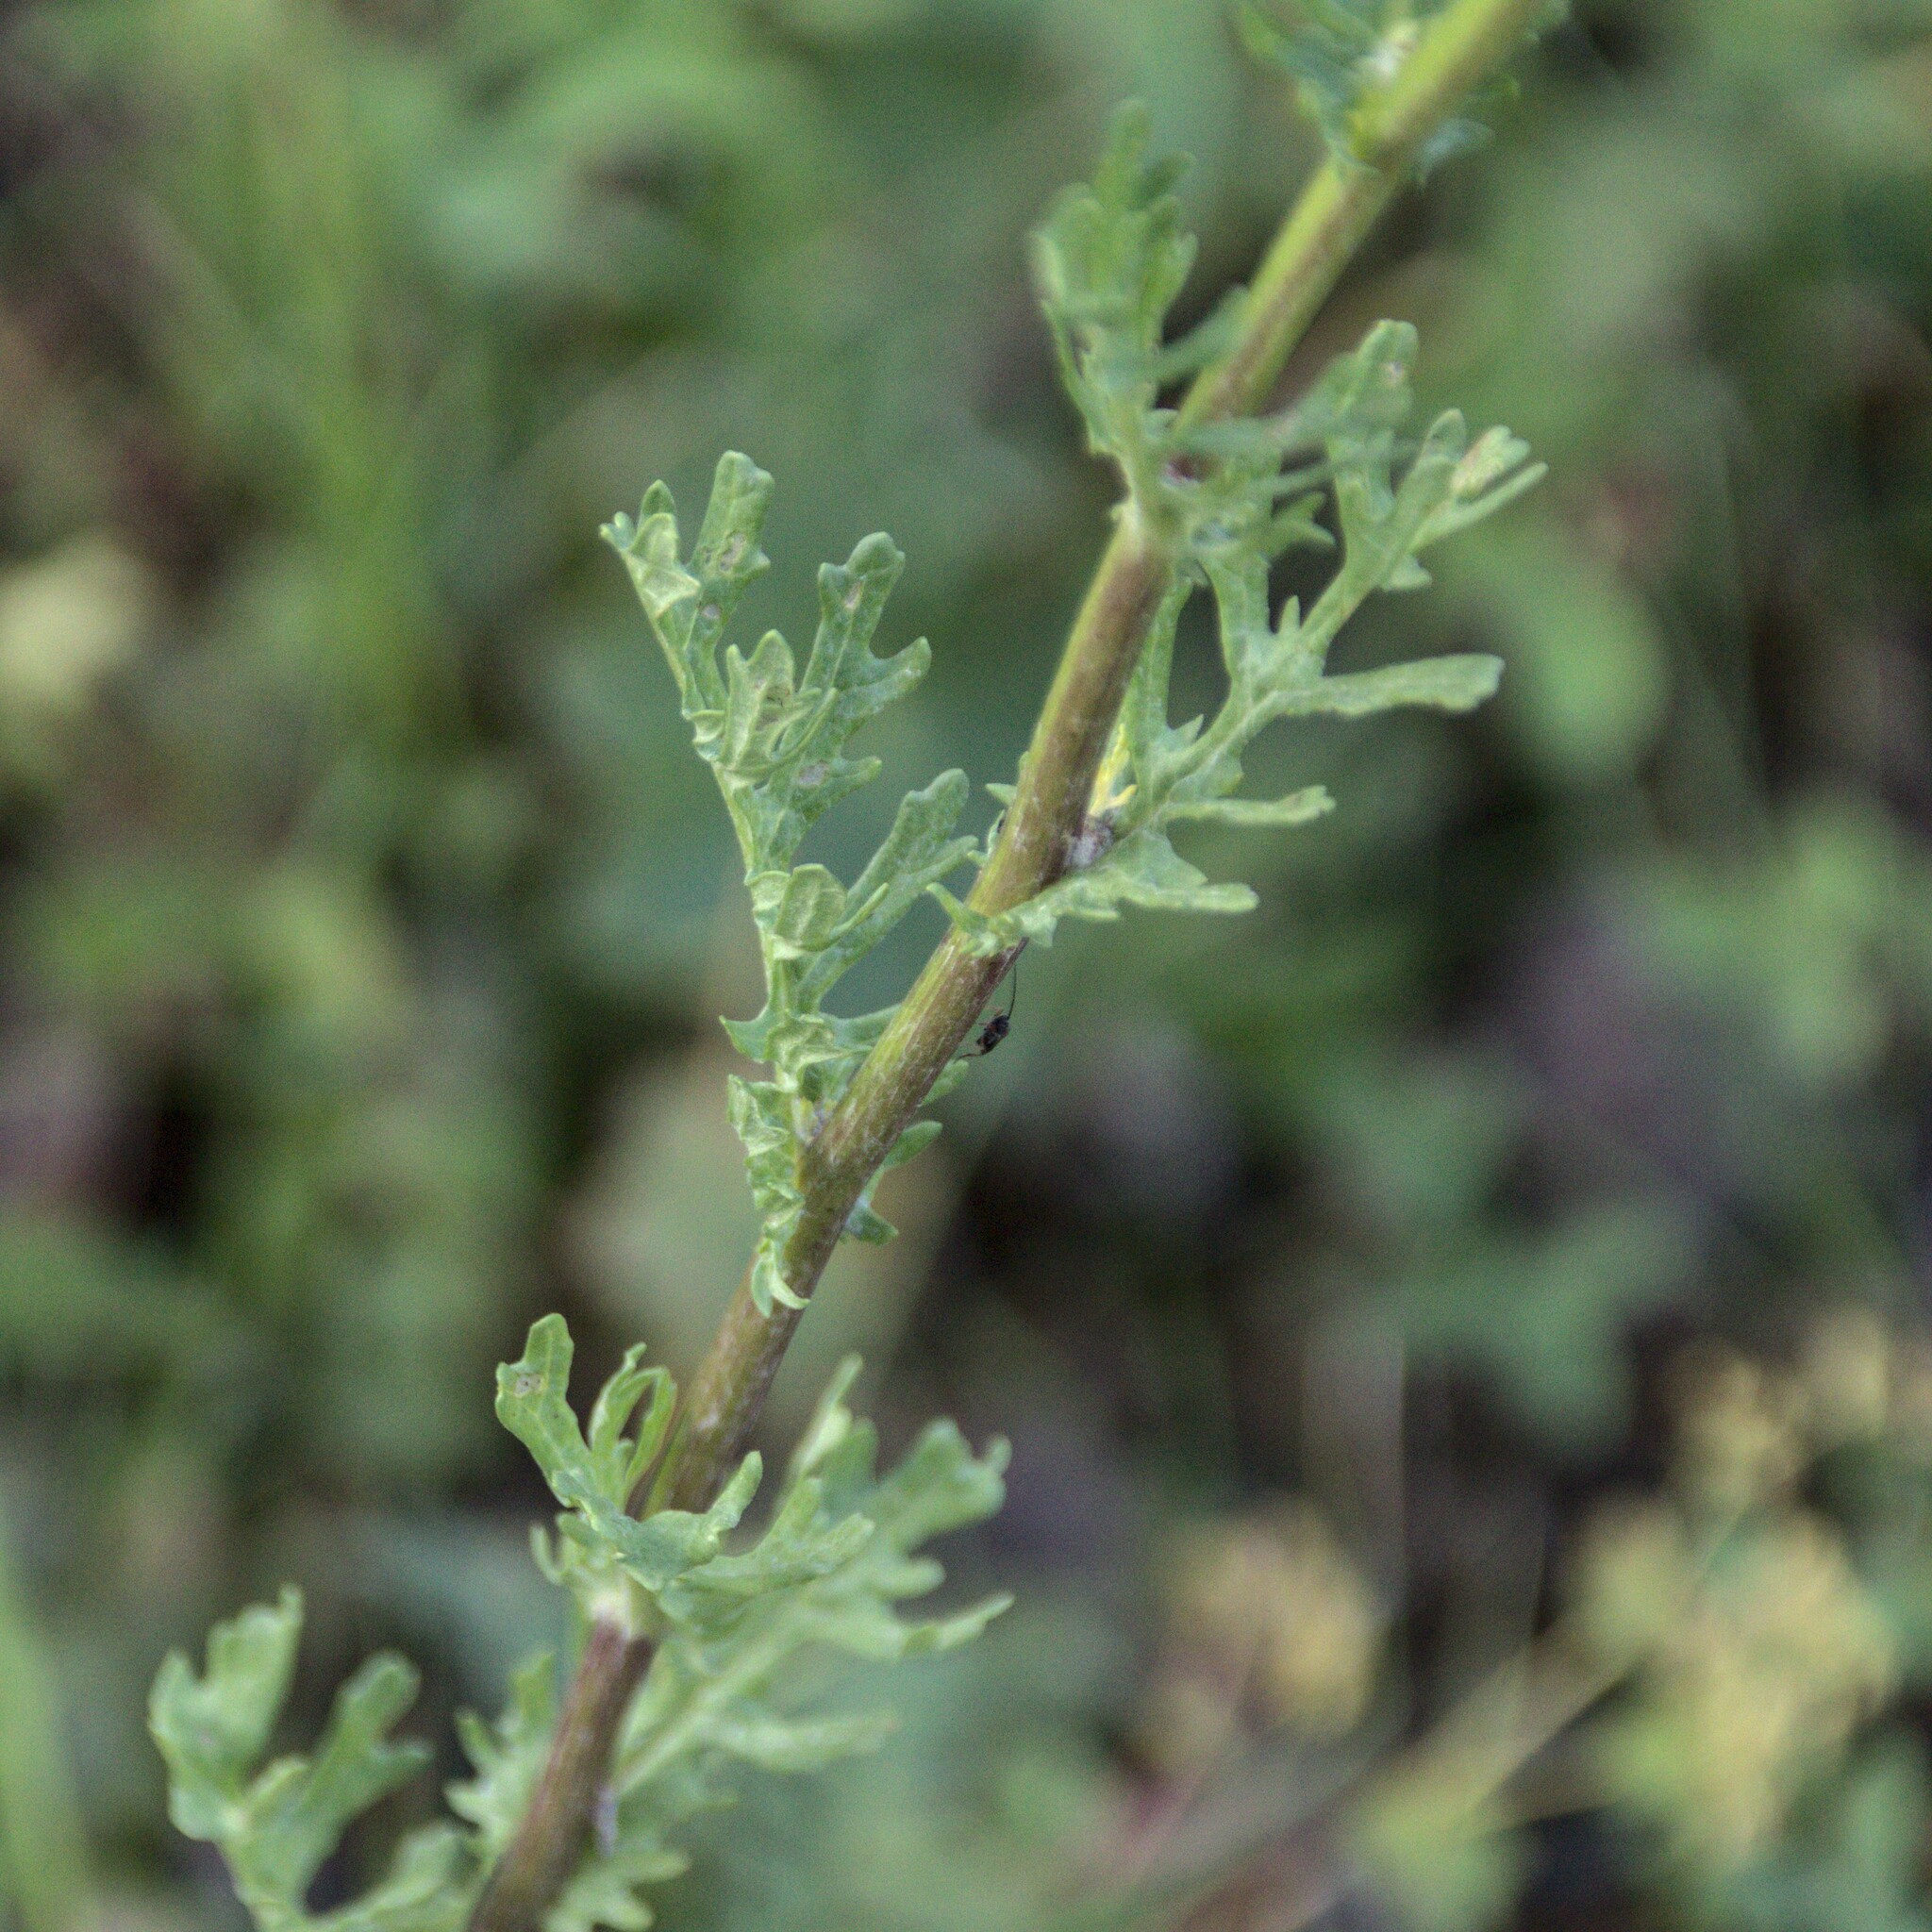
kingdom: Plantae
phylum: Tracheophyta
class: Magnoliopsida
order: Asterales
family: Asteraceae
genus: Jacobaea
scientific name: Jacobaea vulgaris
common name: Stinking willie
